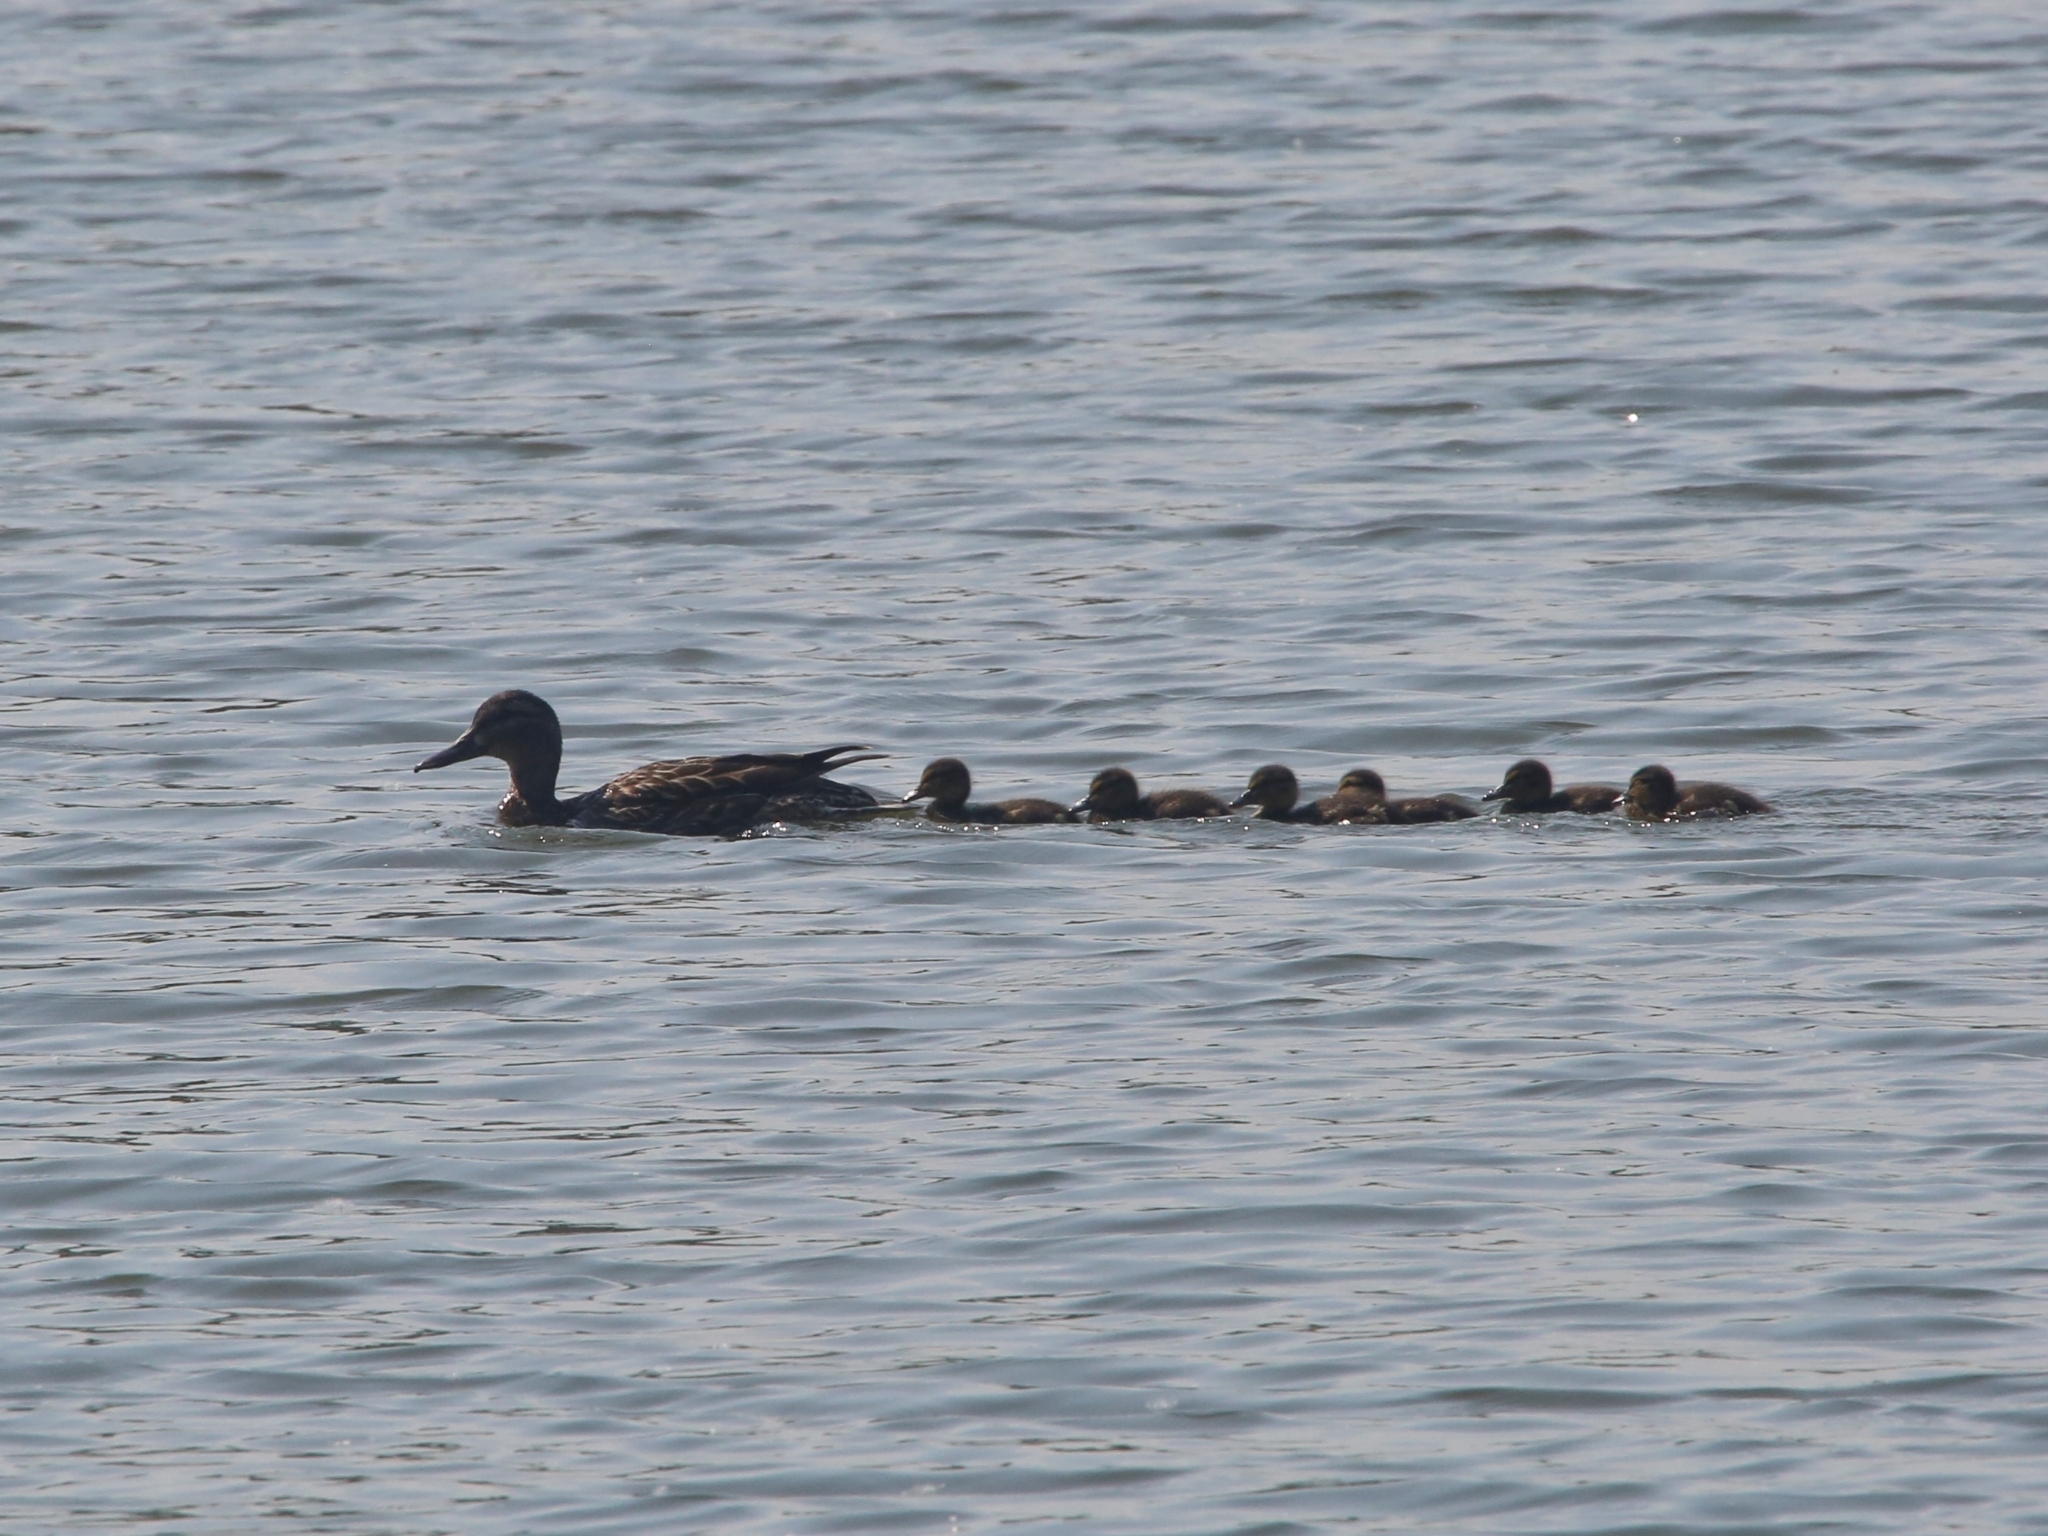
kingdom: Animalia
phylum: Chordata
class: Aves
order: Anseriformes
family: Anatidae
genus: Anas
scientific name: Anas platyrhynchos
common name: Mallard
